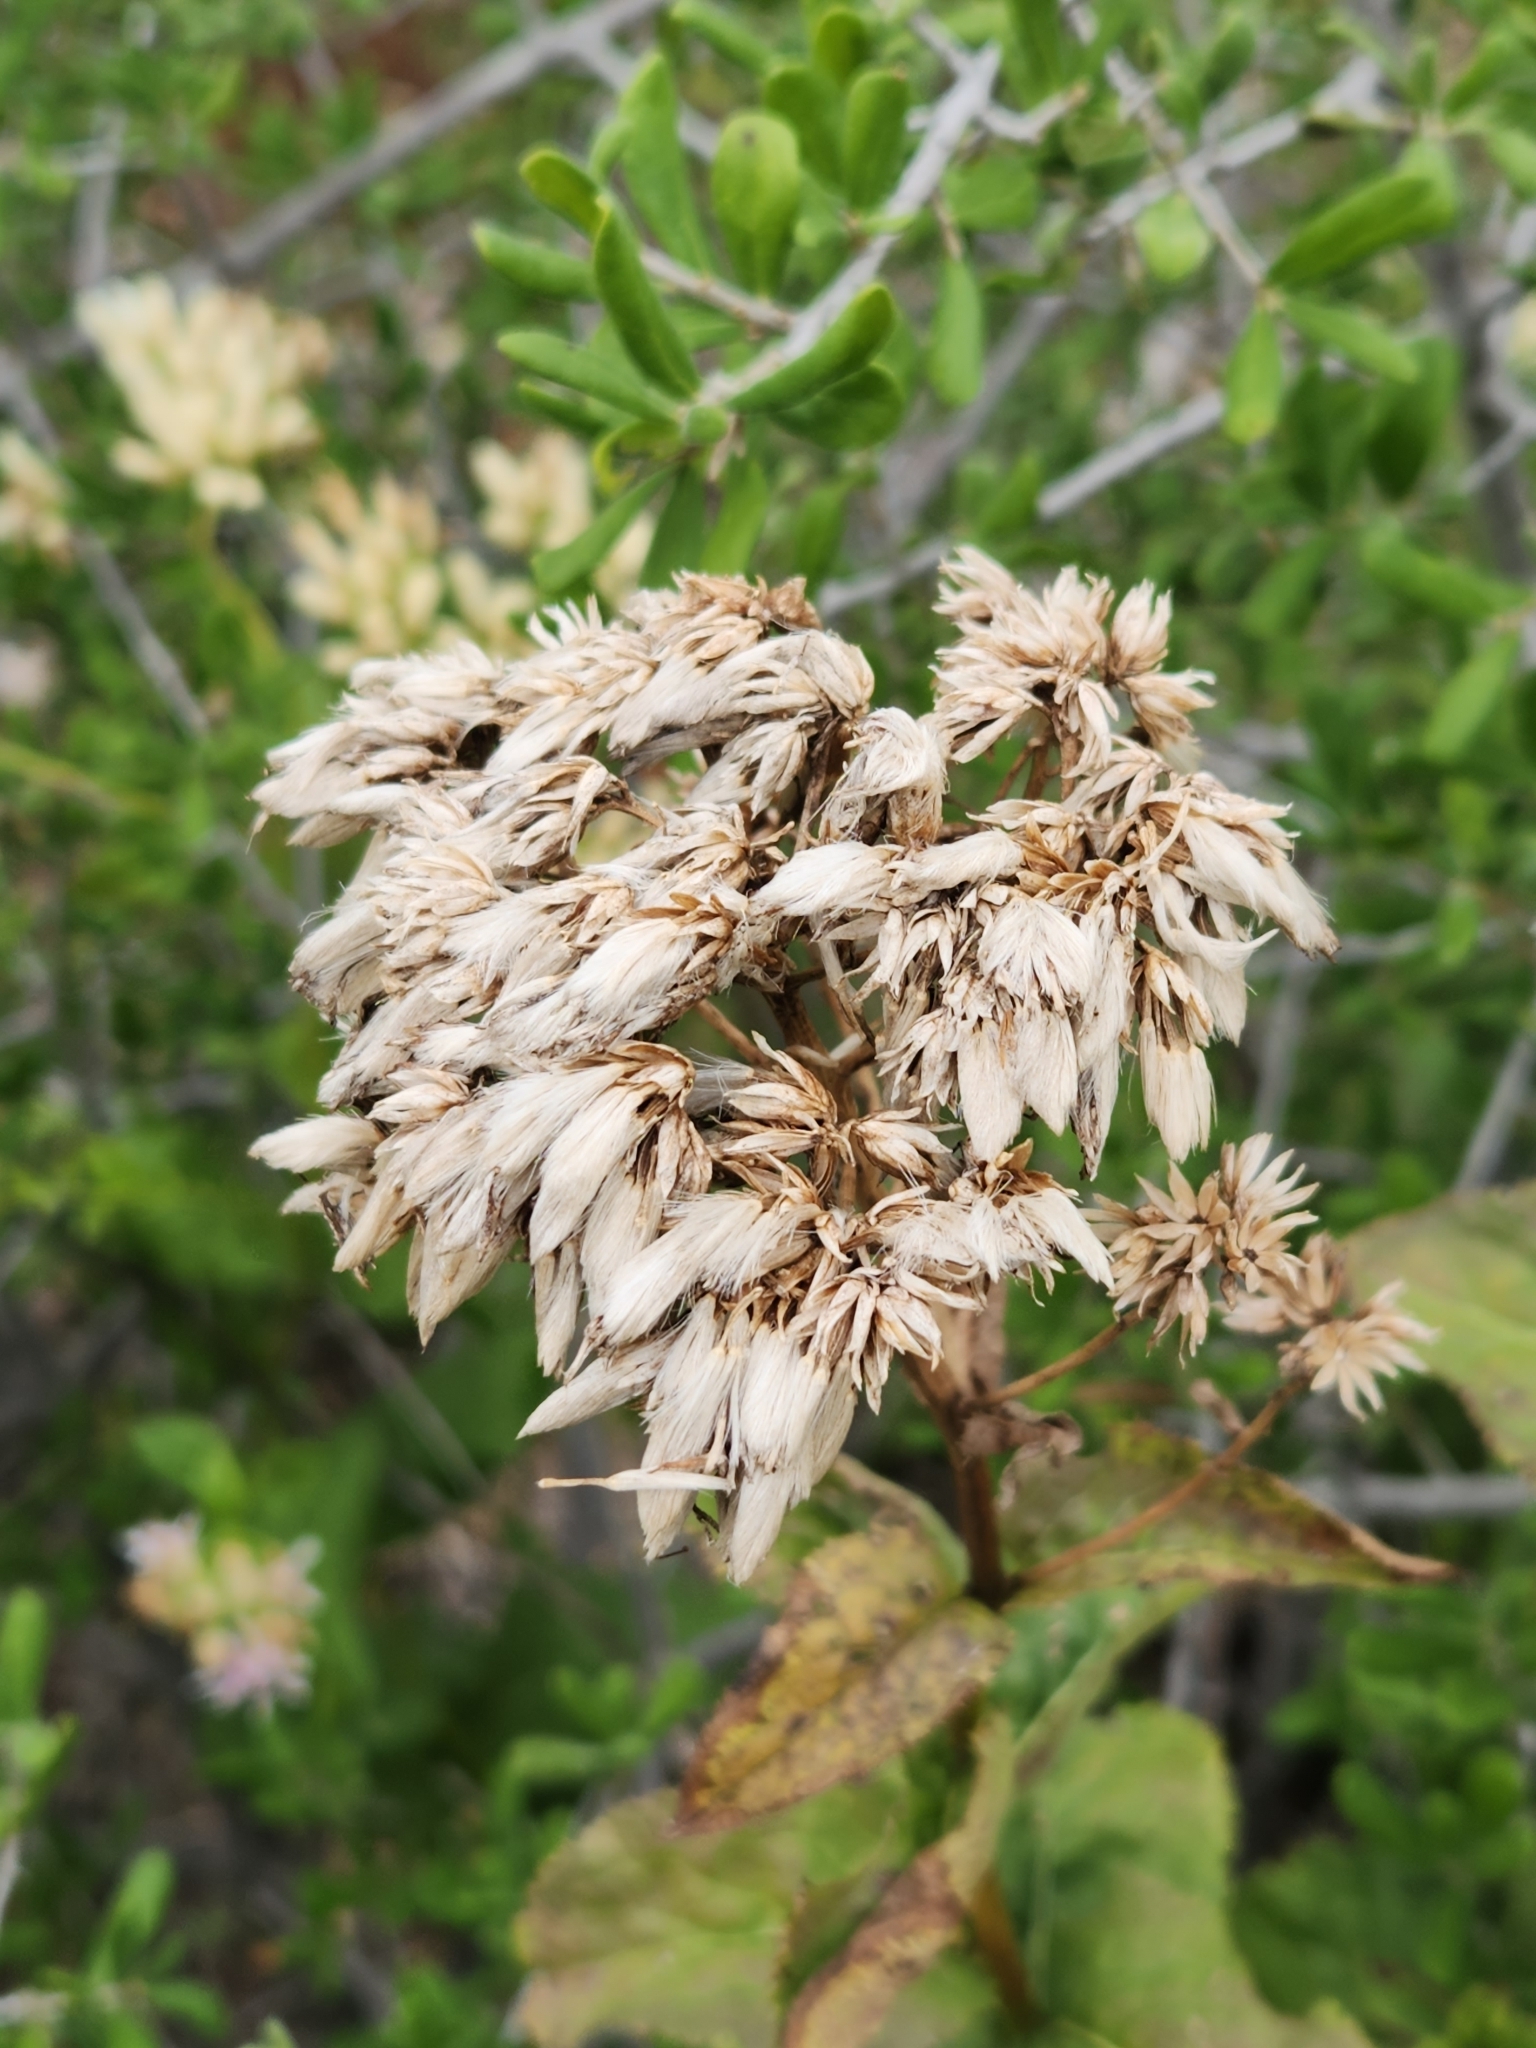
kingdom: Plantae
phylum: Tracheophyta
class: Magnoliopsida
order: Asterales
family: Asteraceae
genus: Acourtia
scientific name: Acourtia wrightii
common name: Brownfoot
